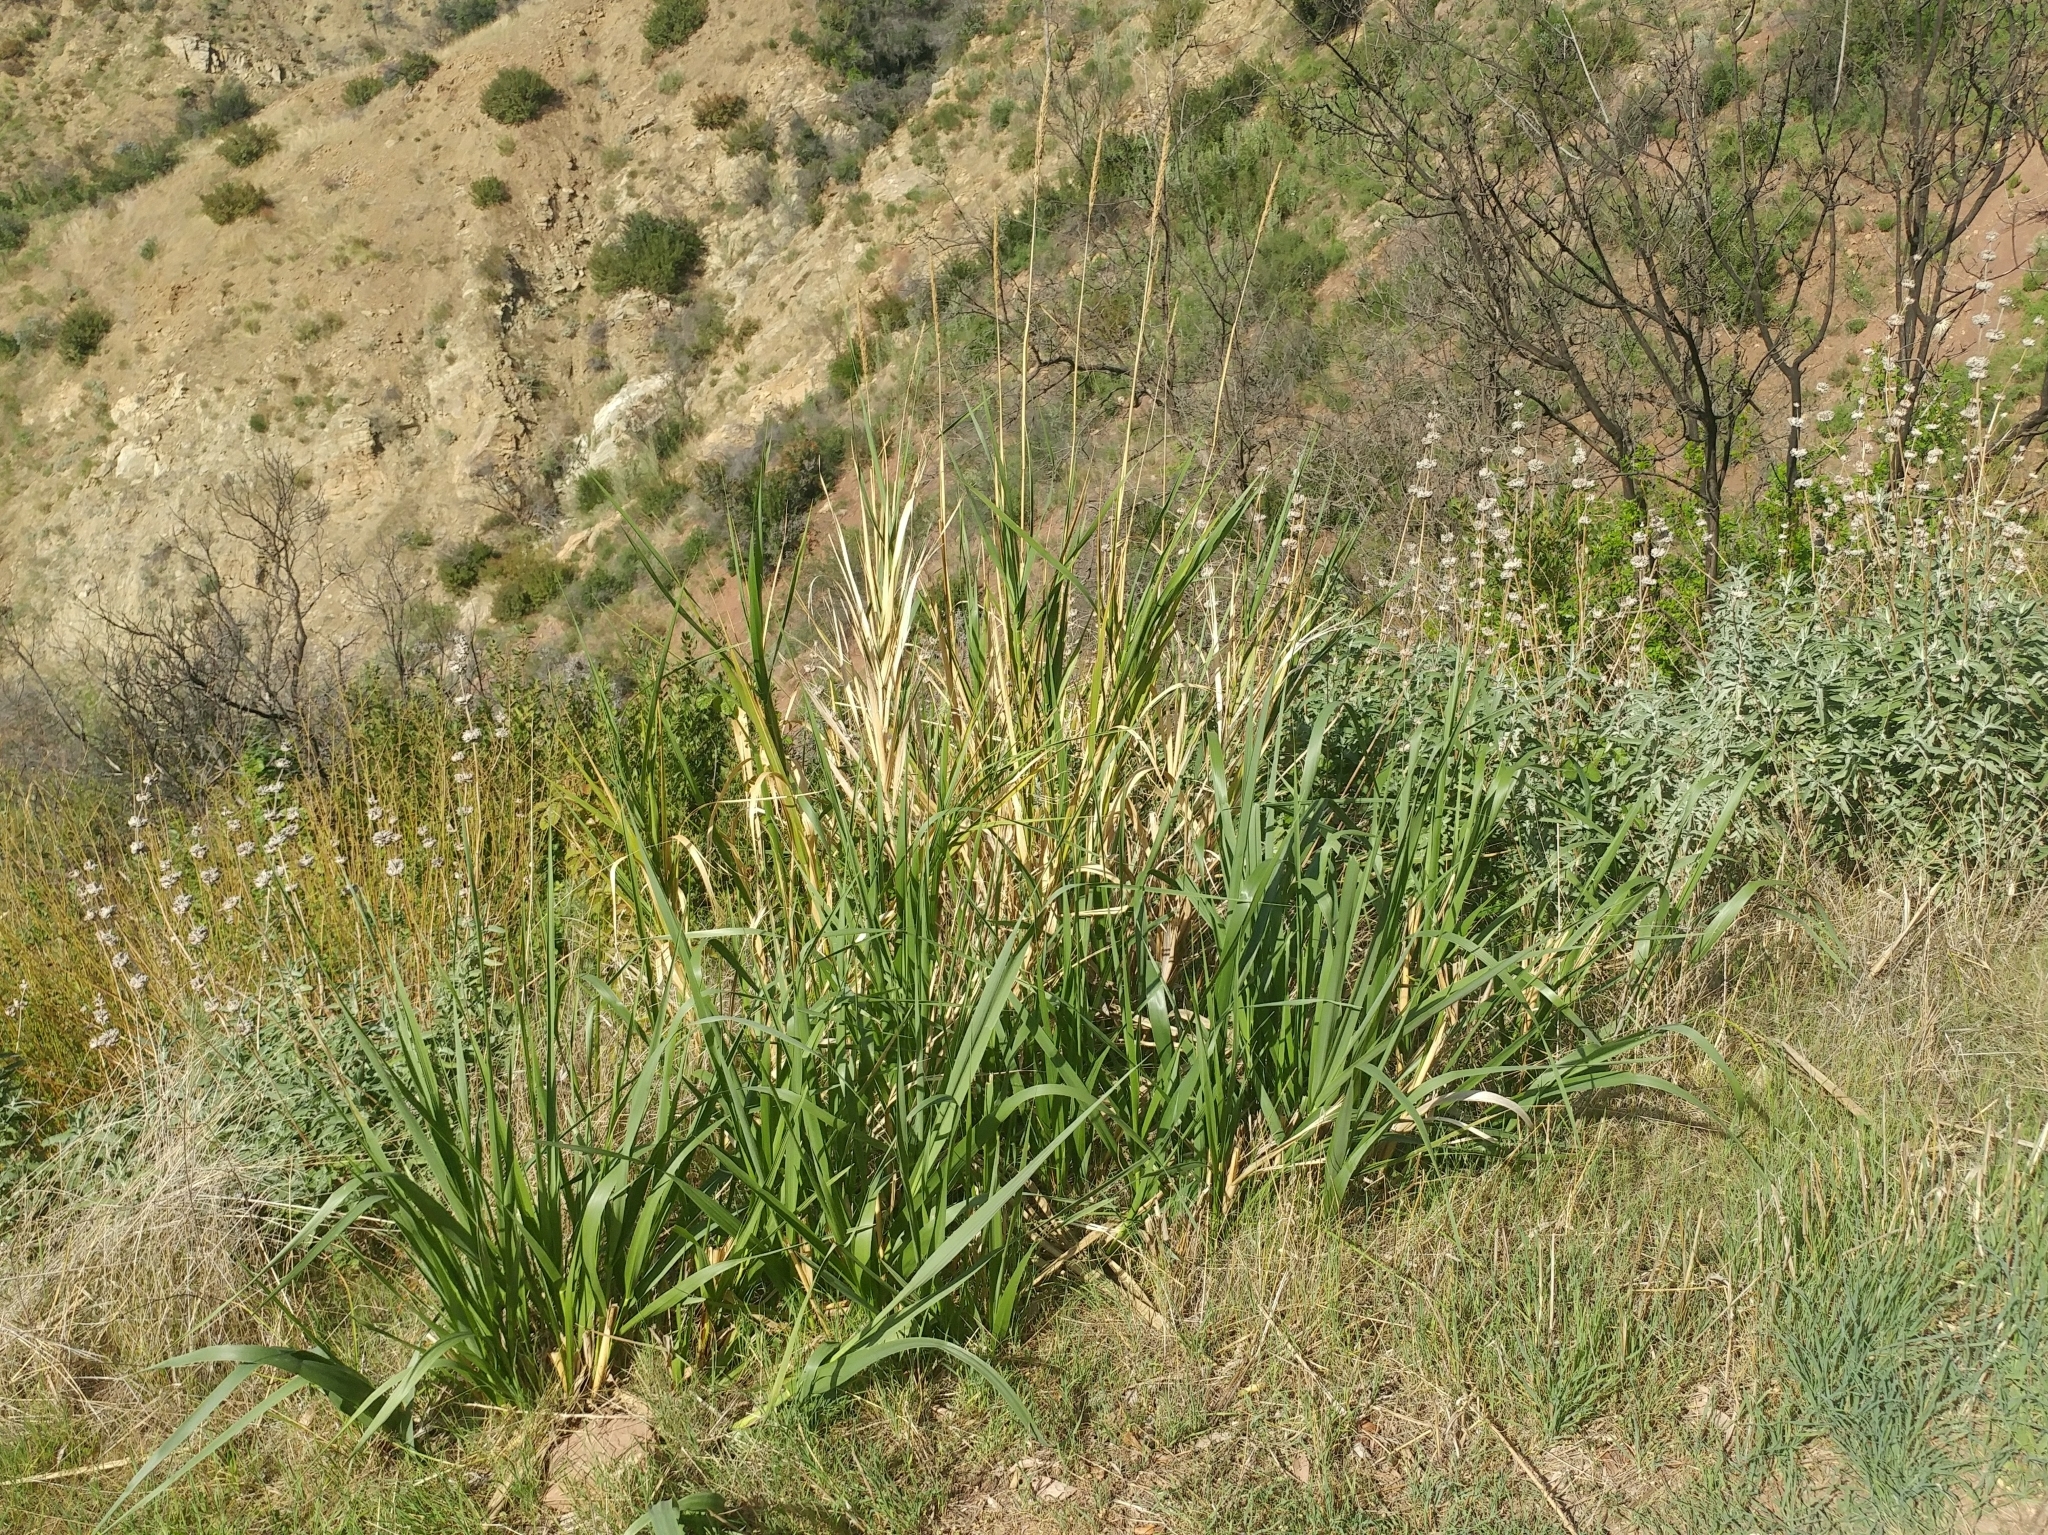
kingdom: Plantae
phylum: Tracheophyta
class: Liliopsida
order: Poales
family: Poaceae
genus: Leymus
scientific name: Leymus condensatus
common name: Giant wild rye
